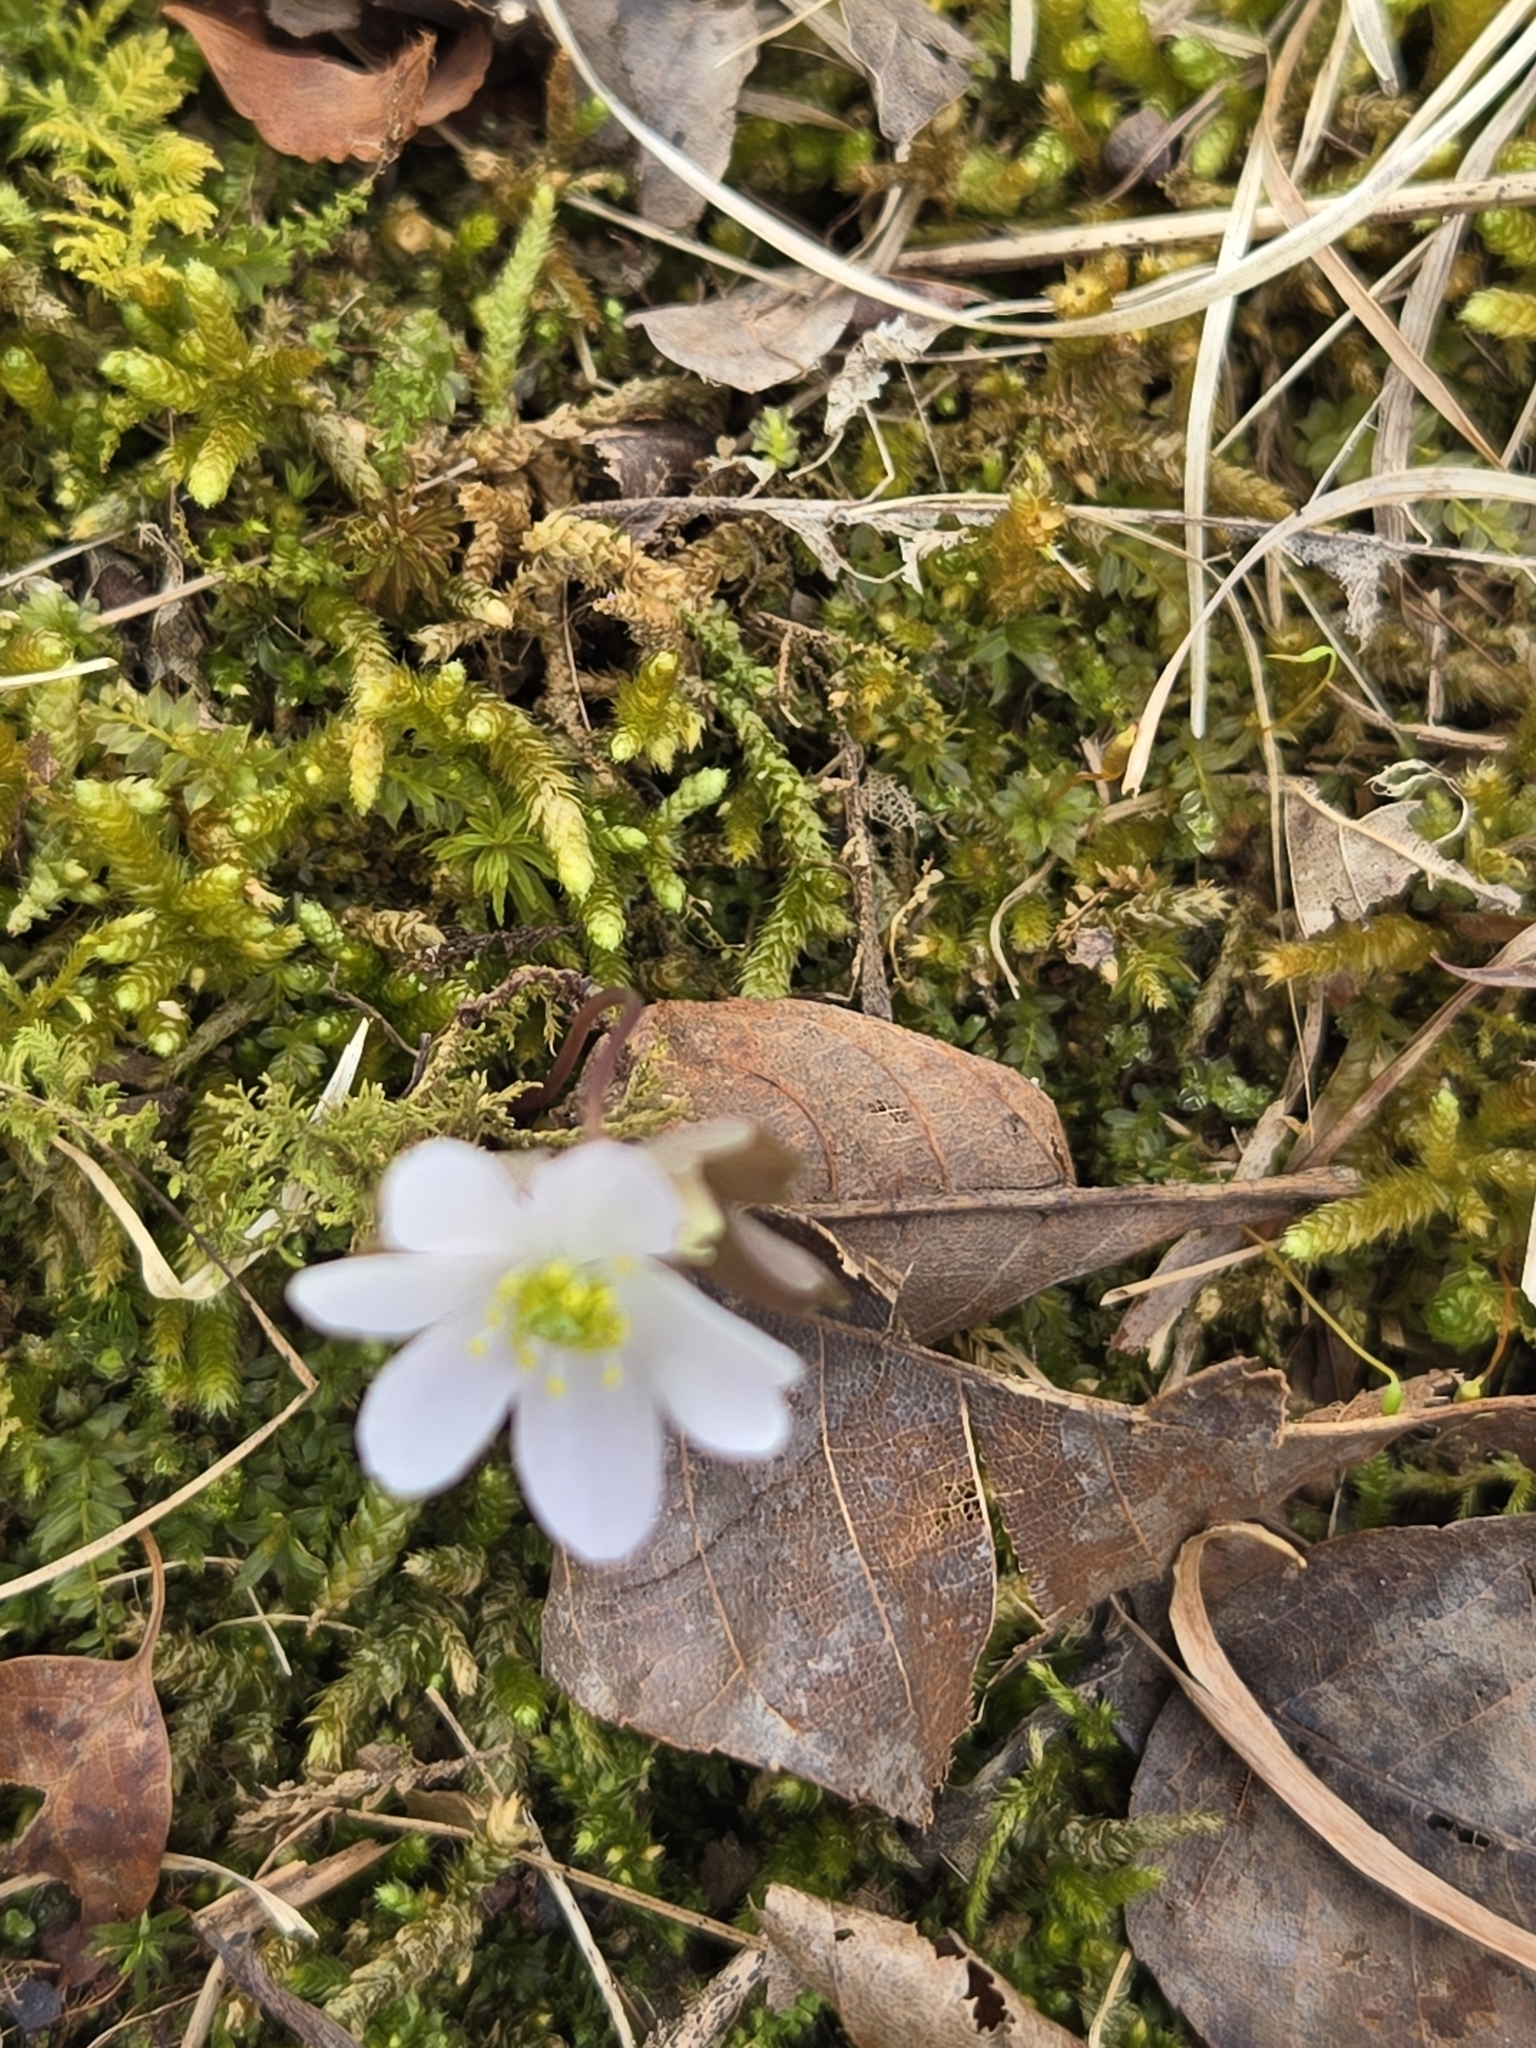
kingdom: Plantae
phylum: Tracheophyta
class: Magnoliopsida
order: Ranunculales
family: Ranunculaceae
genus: Thalictrum
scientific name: Thalictrum thalictroides
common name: Rue-anemone
